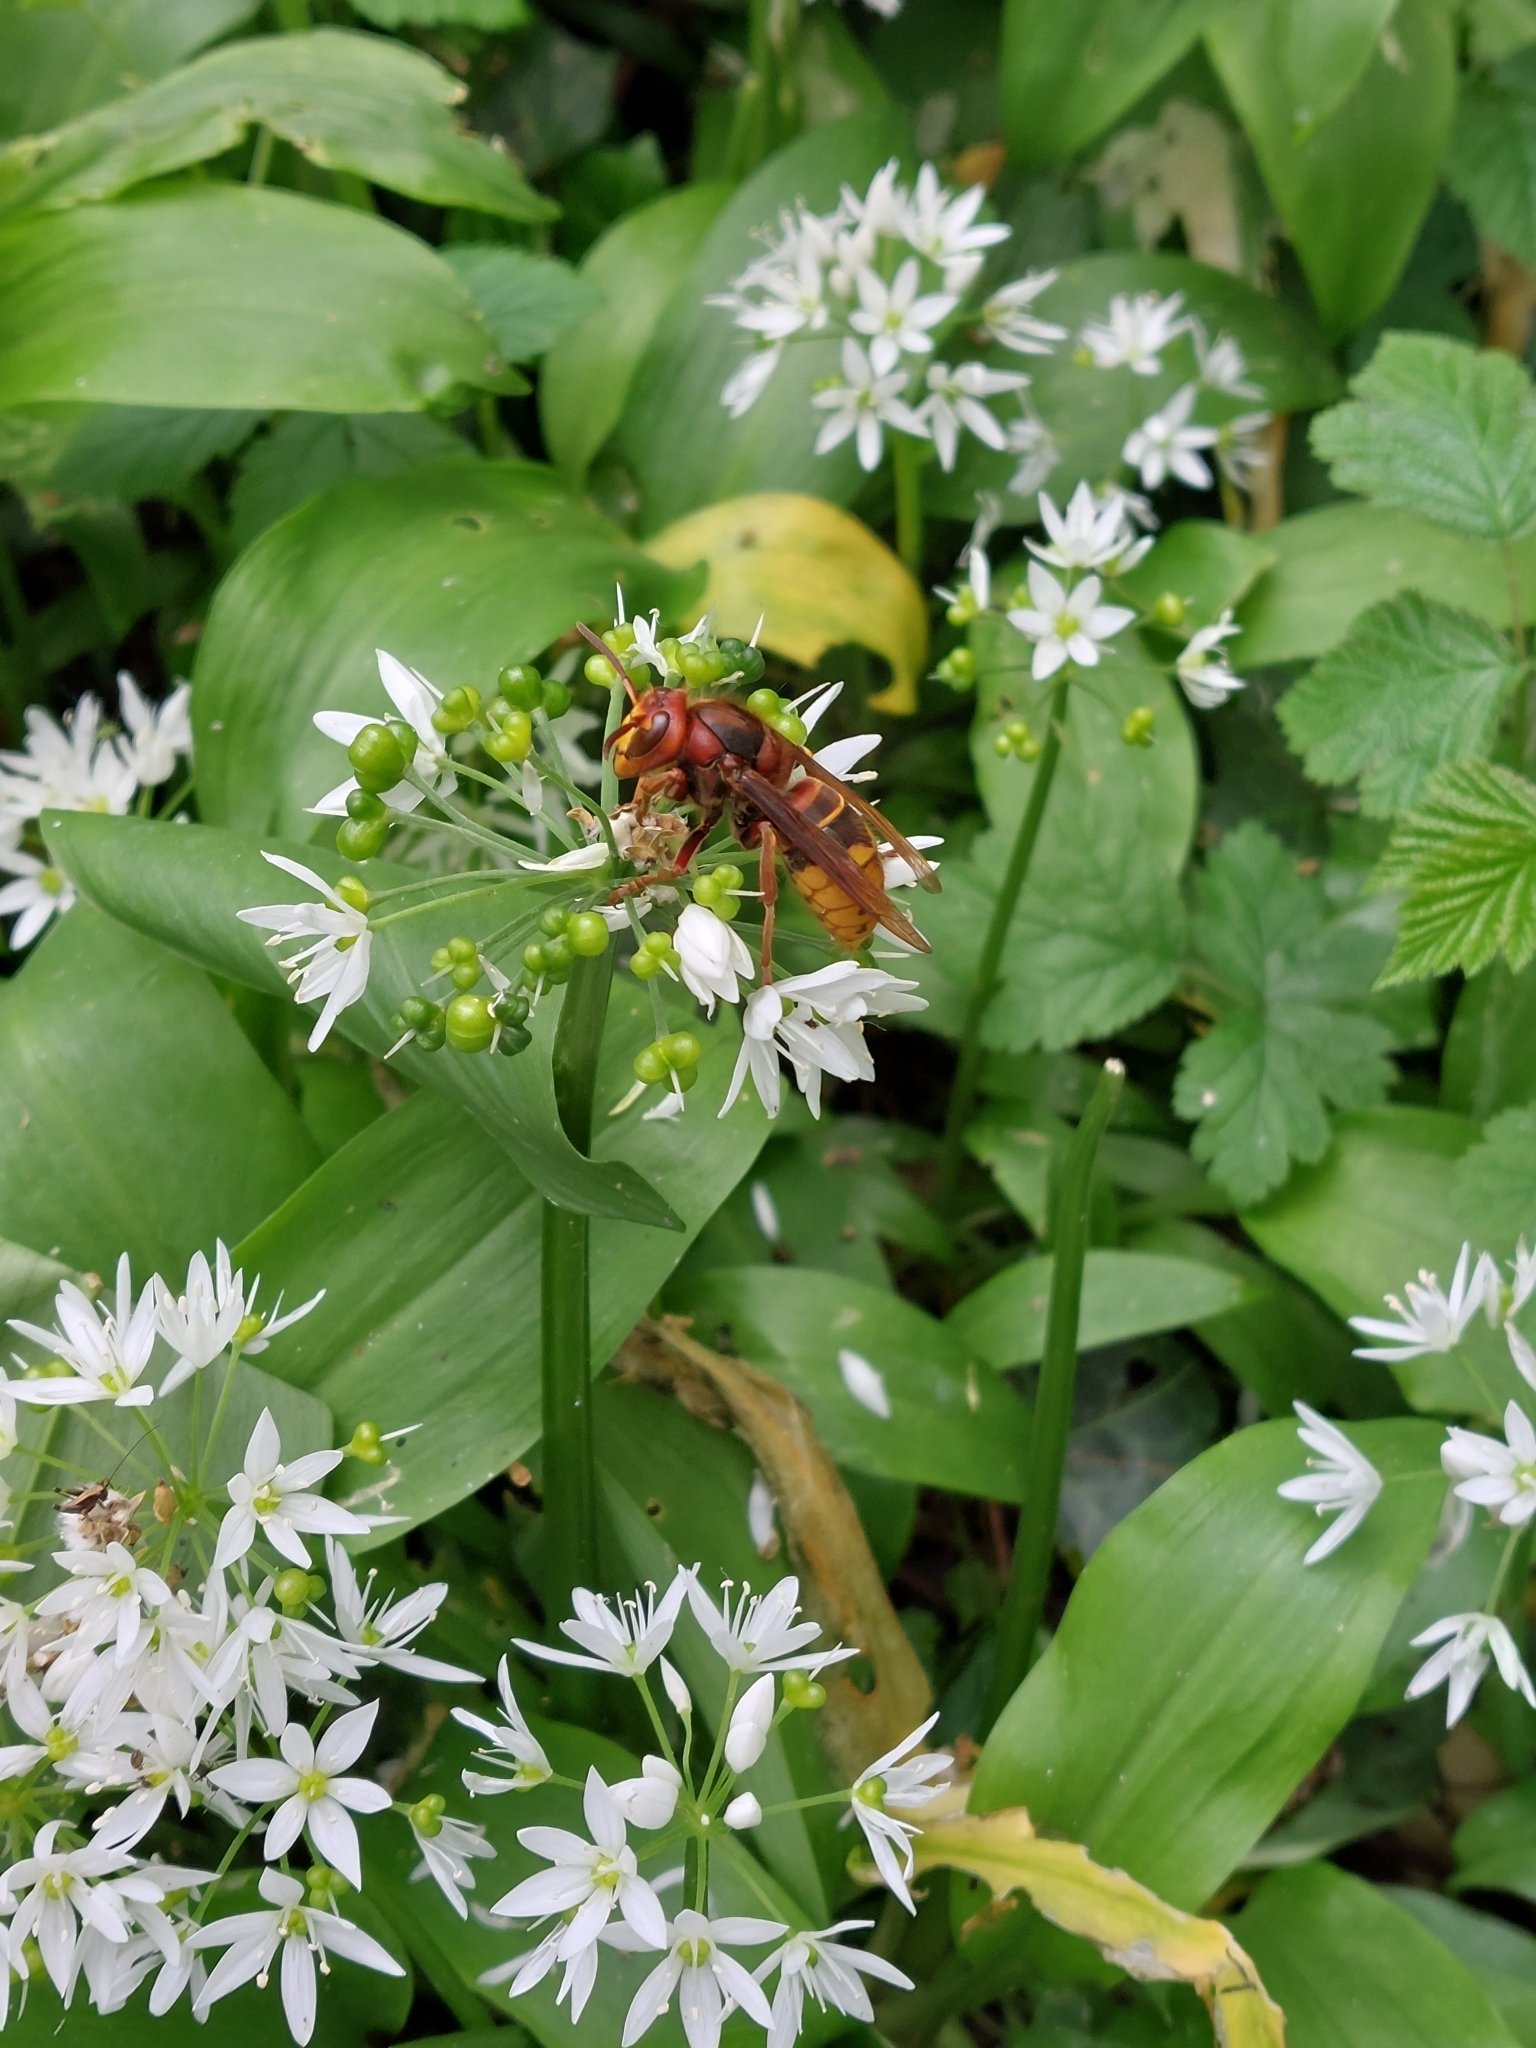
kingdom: Animalia
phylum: Arthropoda
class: Insecta
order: Hymenoptera
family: Vespidae
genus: Vespa
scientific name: Vespa crabro
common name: Hornet
